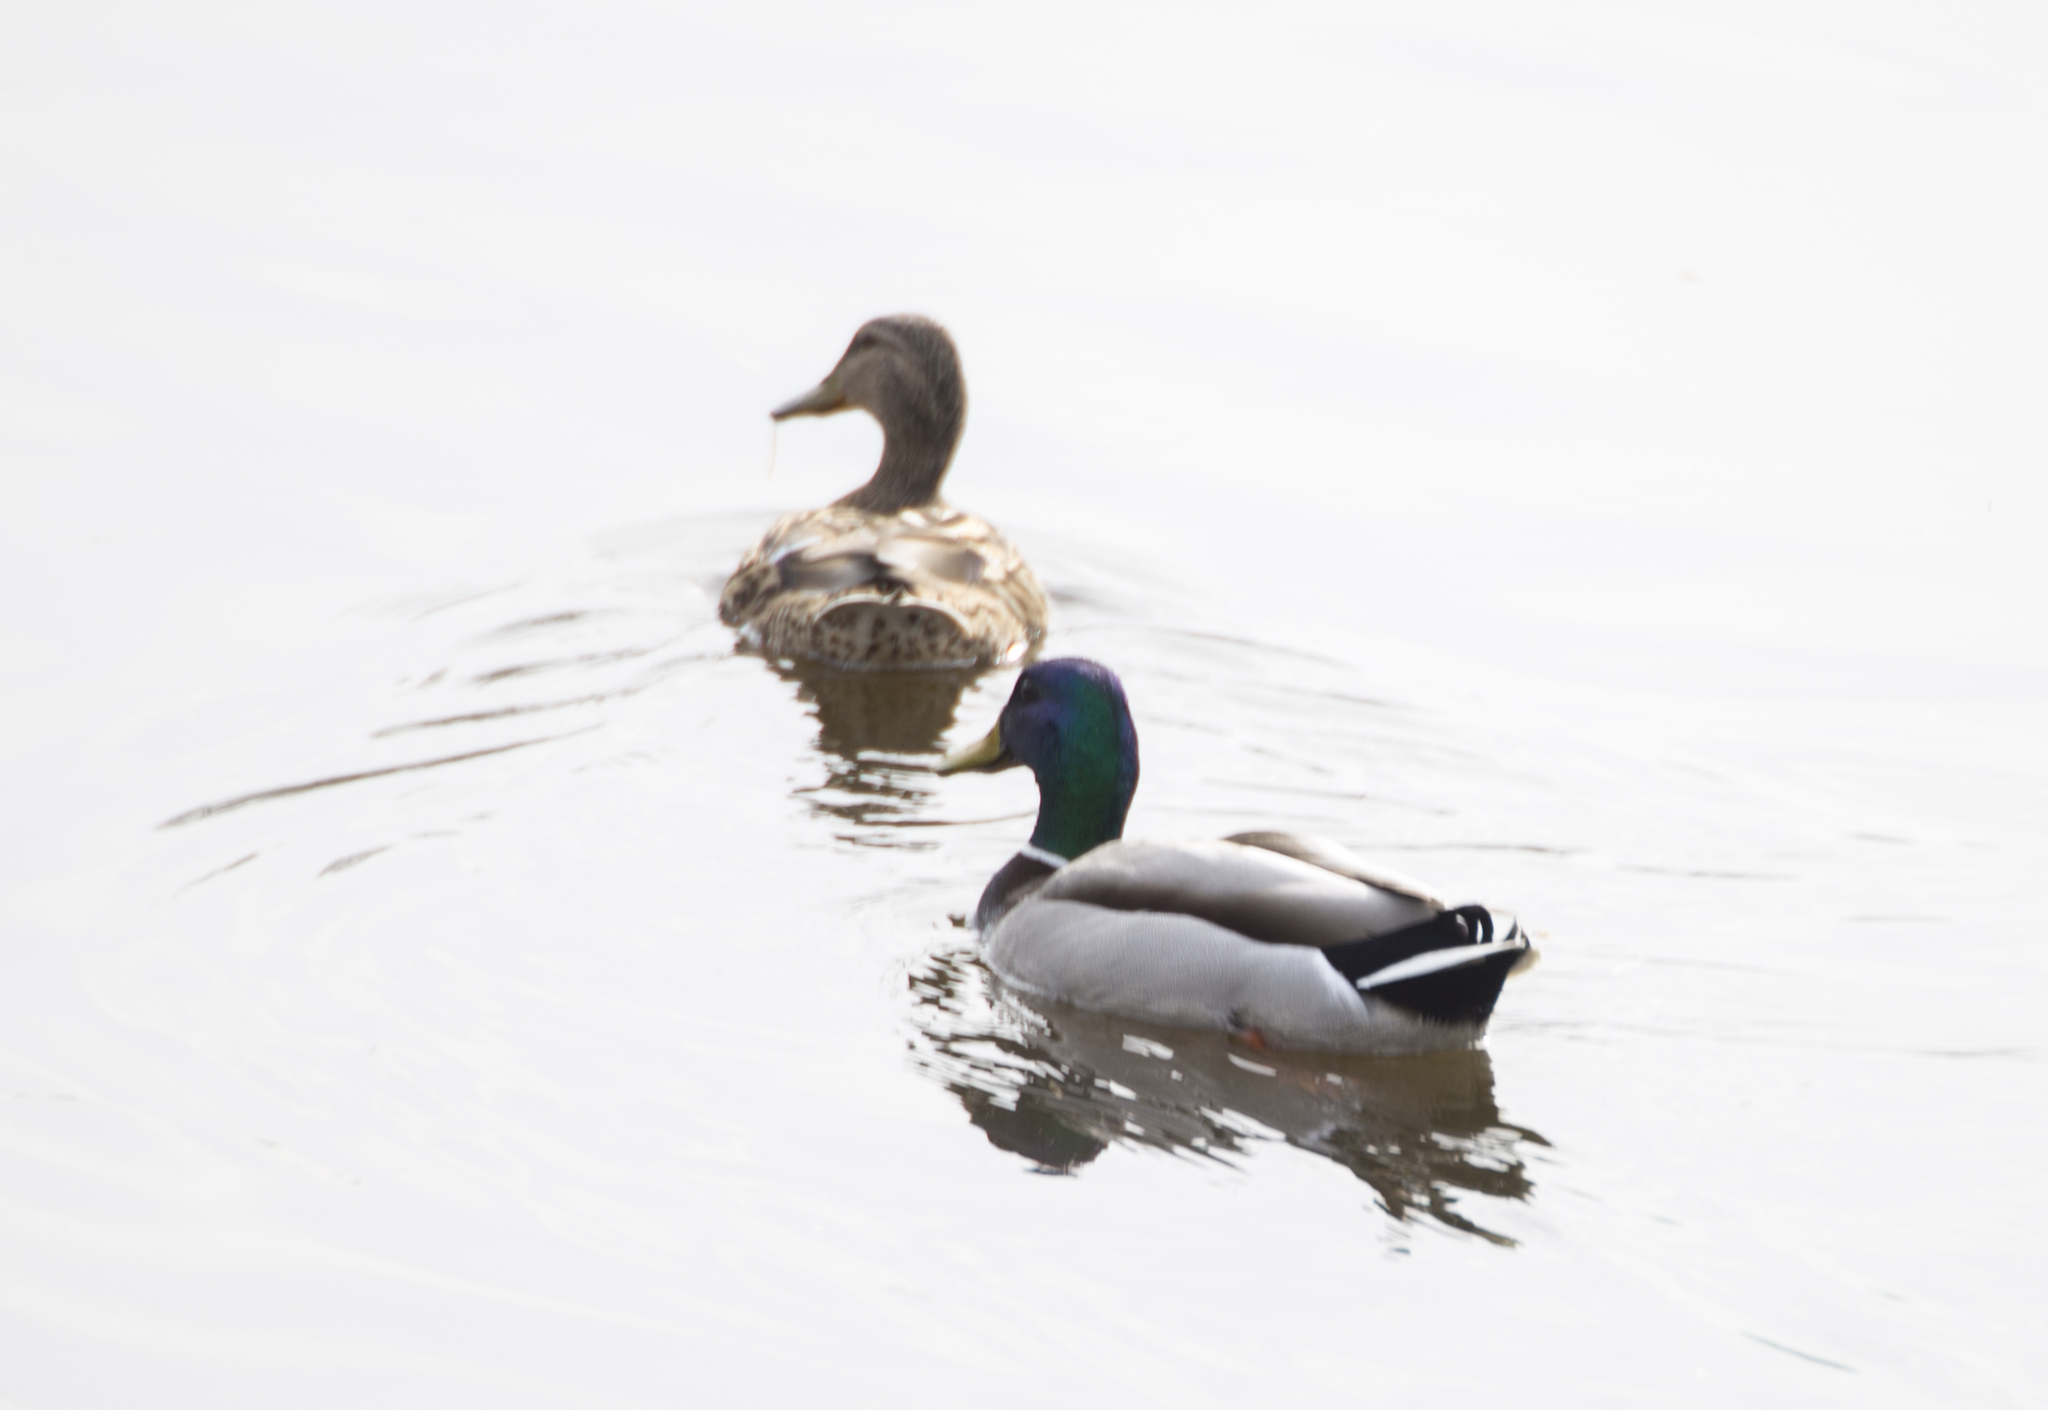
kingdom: Animalia
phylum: Chordata
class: Aves
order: Anseriformes
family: Anatidae
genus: Anas
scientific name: Anas platyrhynchos
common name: Mallard
